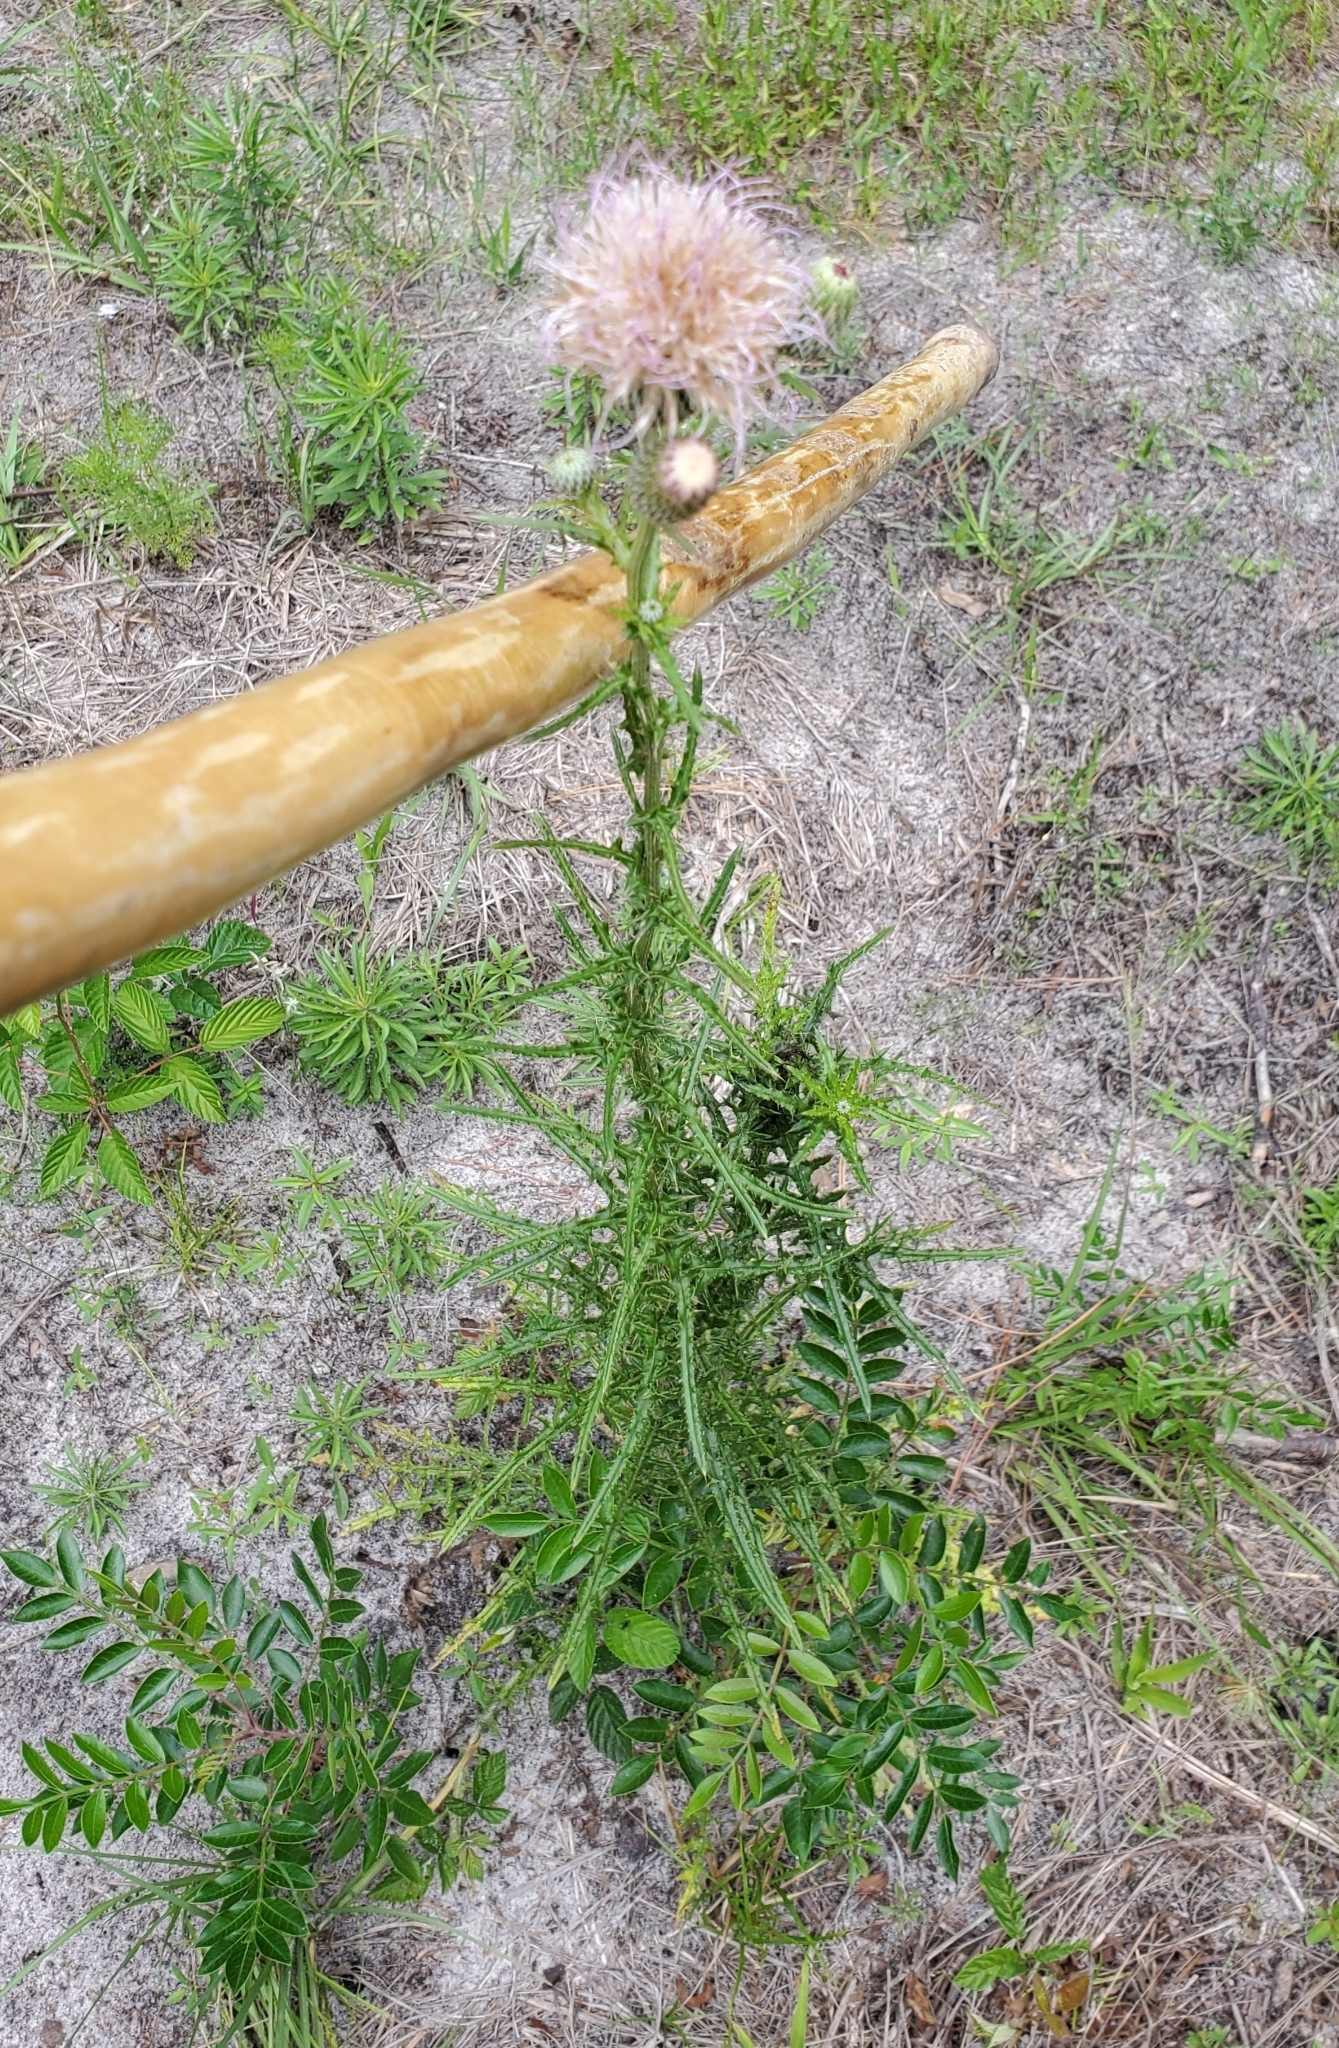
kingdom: Plantae
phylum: Tracheophyta
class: Magnoliopsida
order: Asterales
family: Asteraceae
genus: Cirsium
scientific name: Cirsium nuttalii
